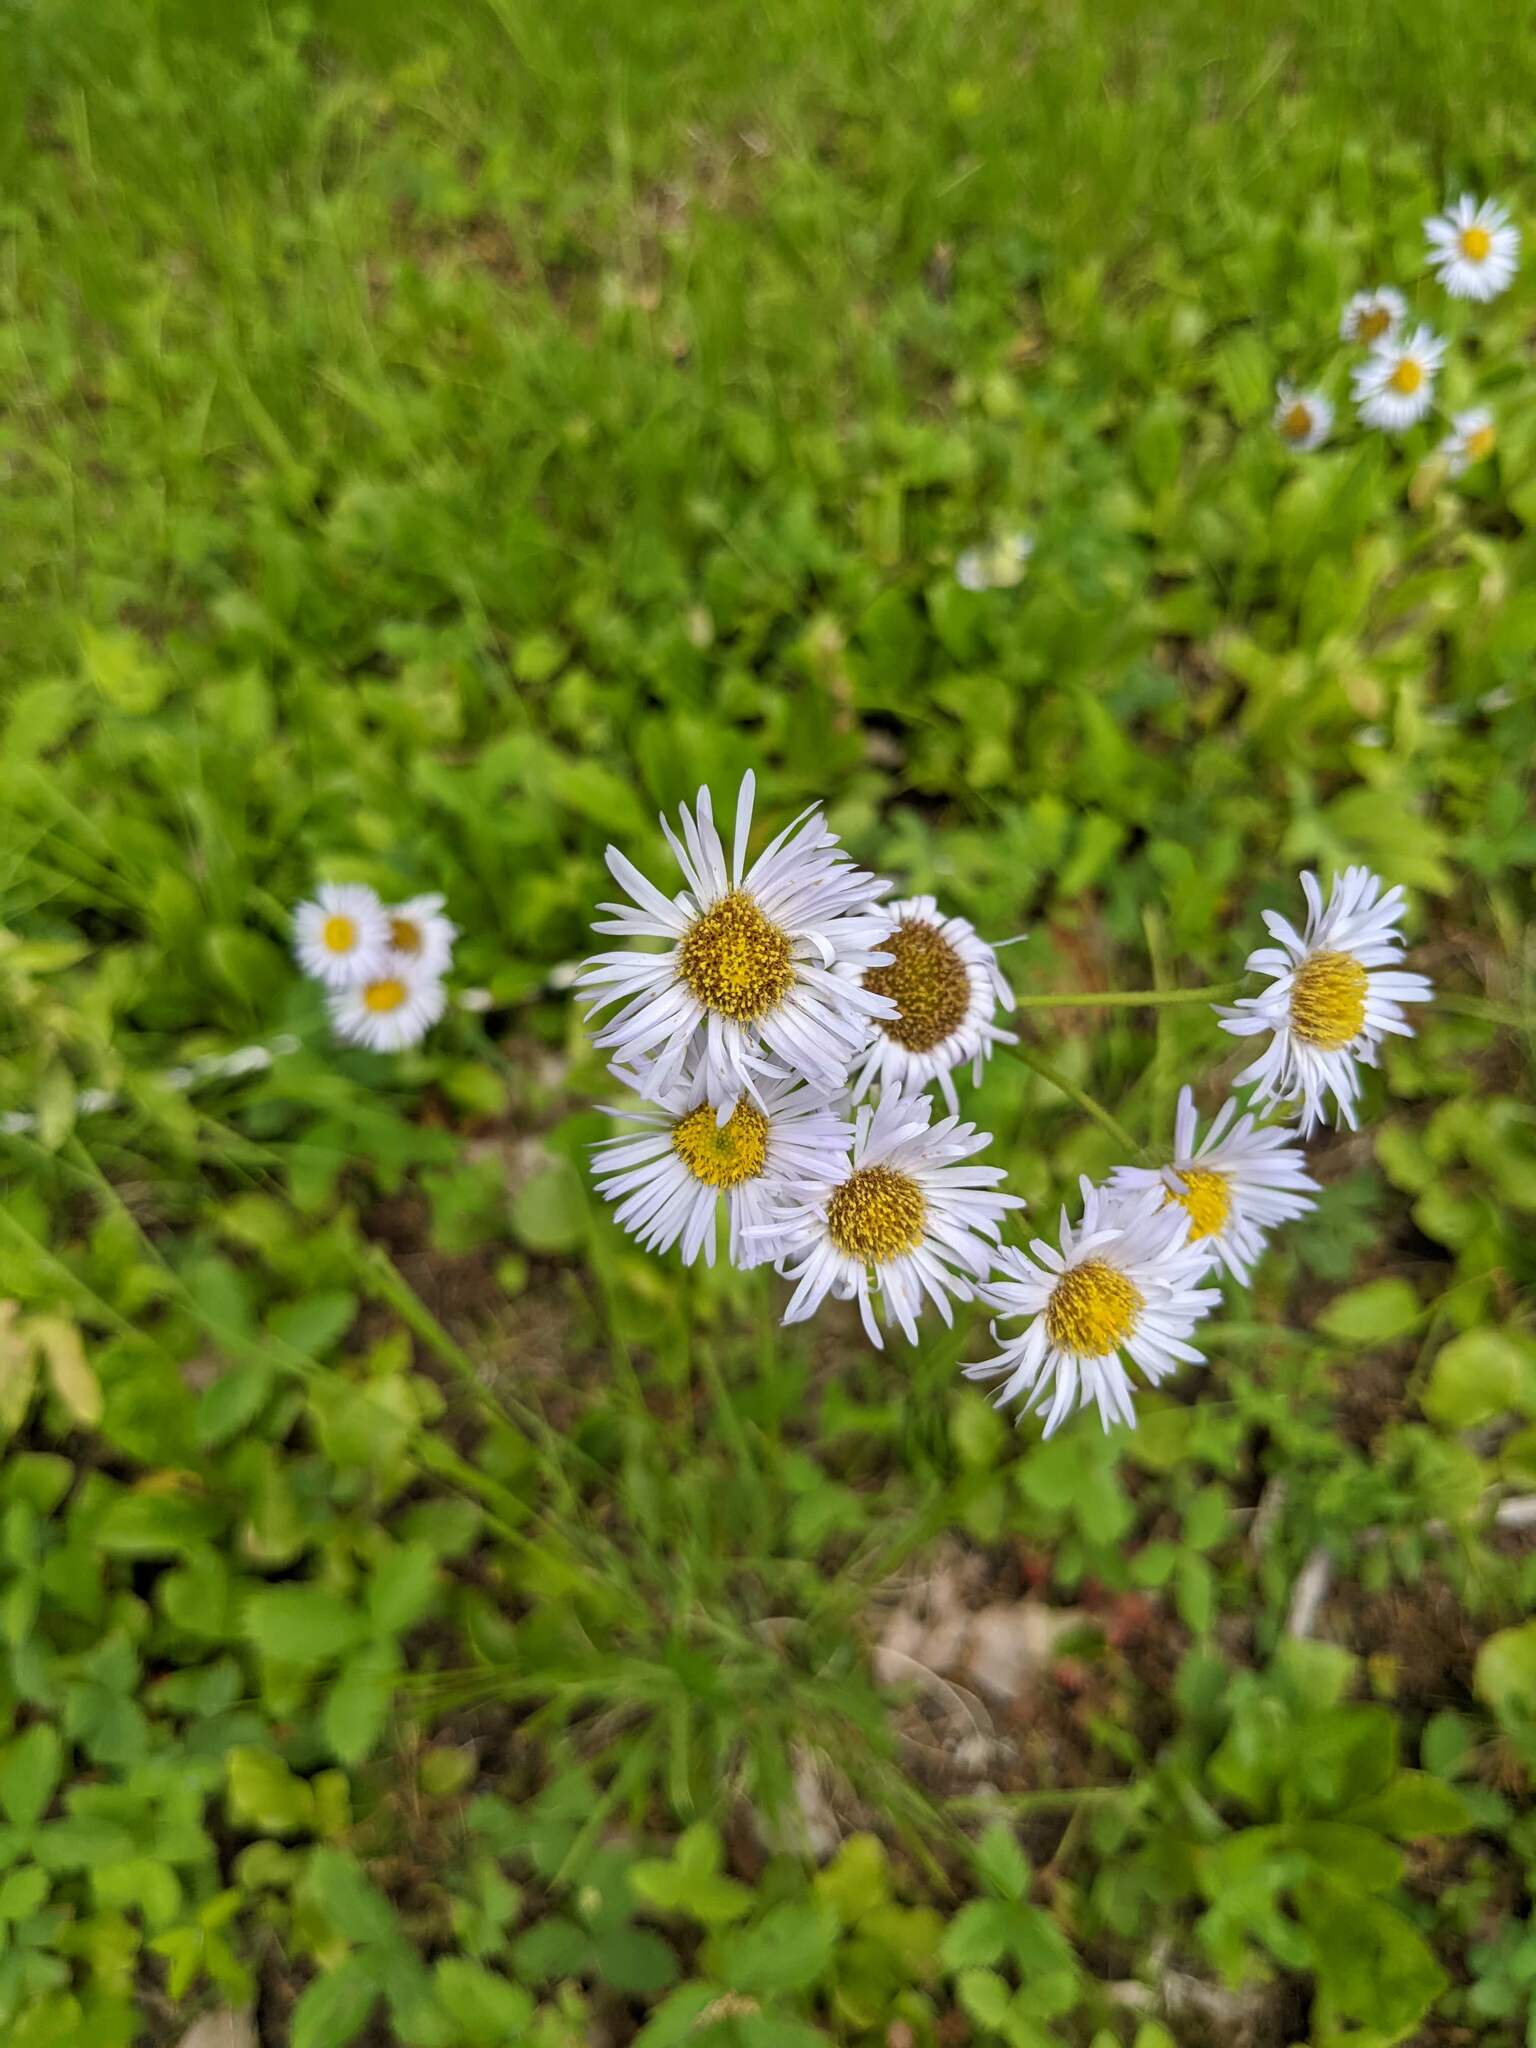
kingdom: Plantae
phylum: Tracheophyta
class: Magnoliopsida
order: Asterales
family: Asteraceae
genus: Erigeron
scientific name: Erigeron pulchellus
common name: Hairy fleabane
